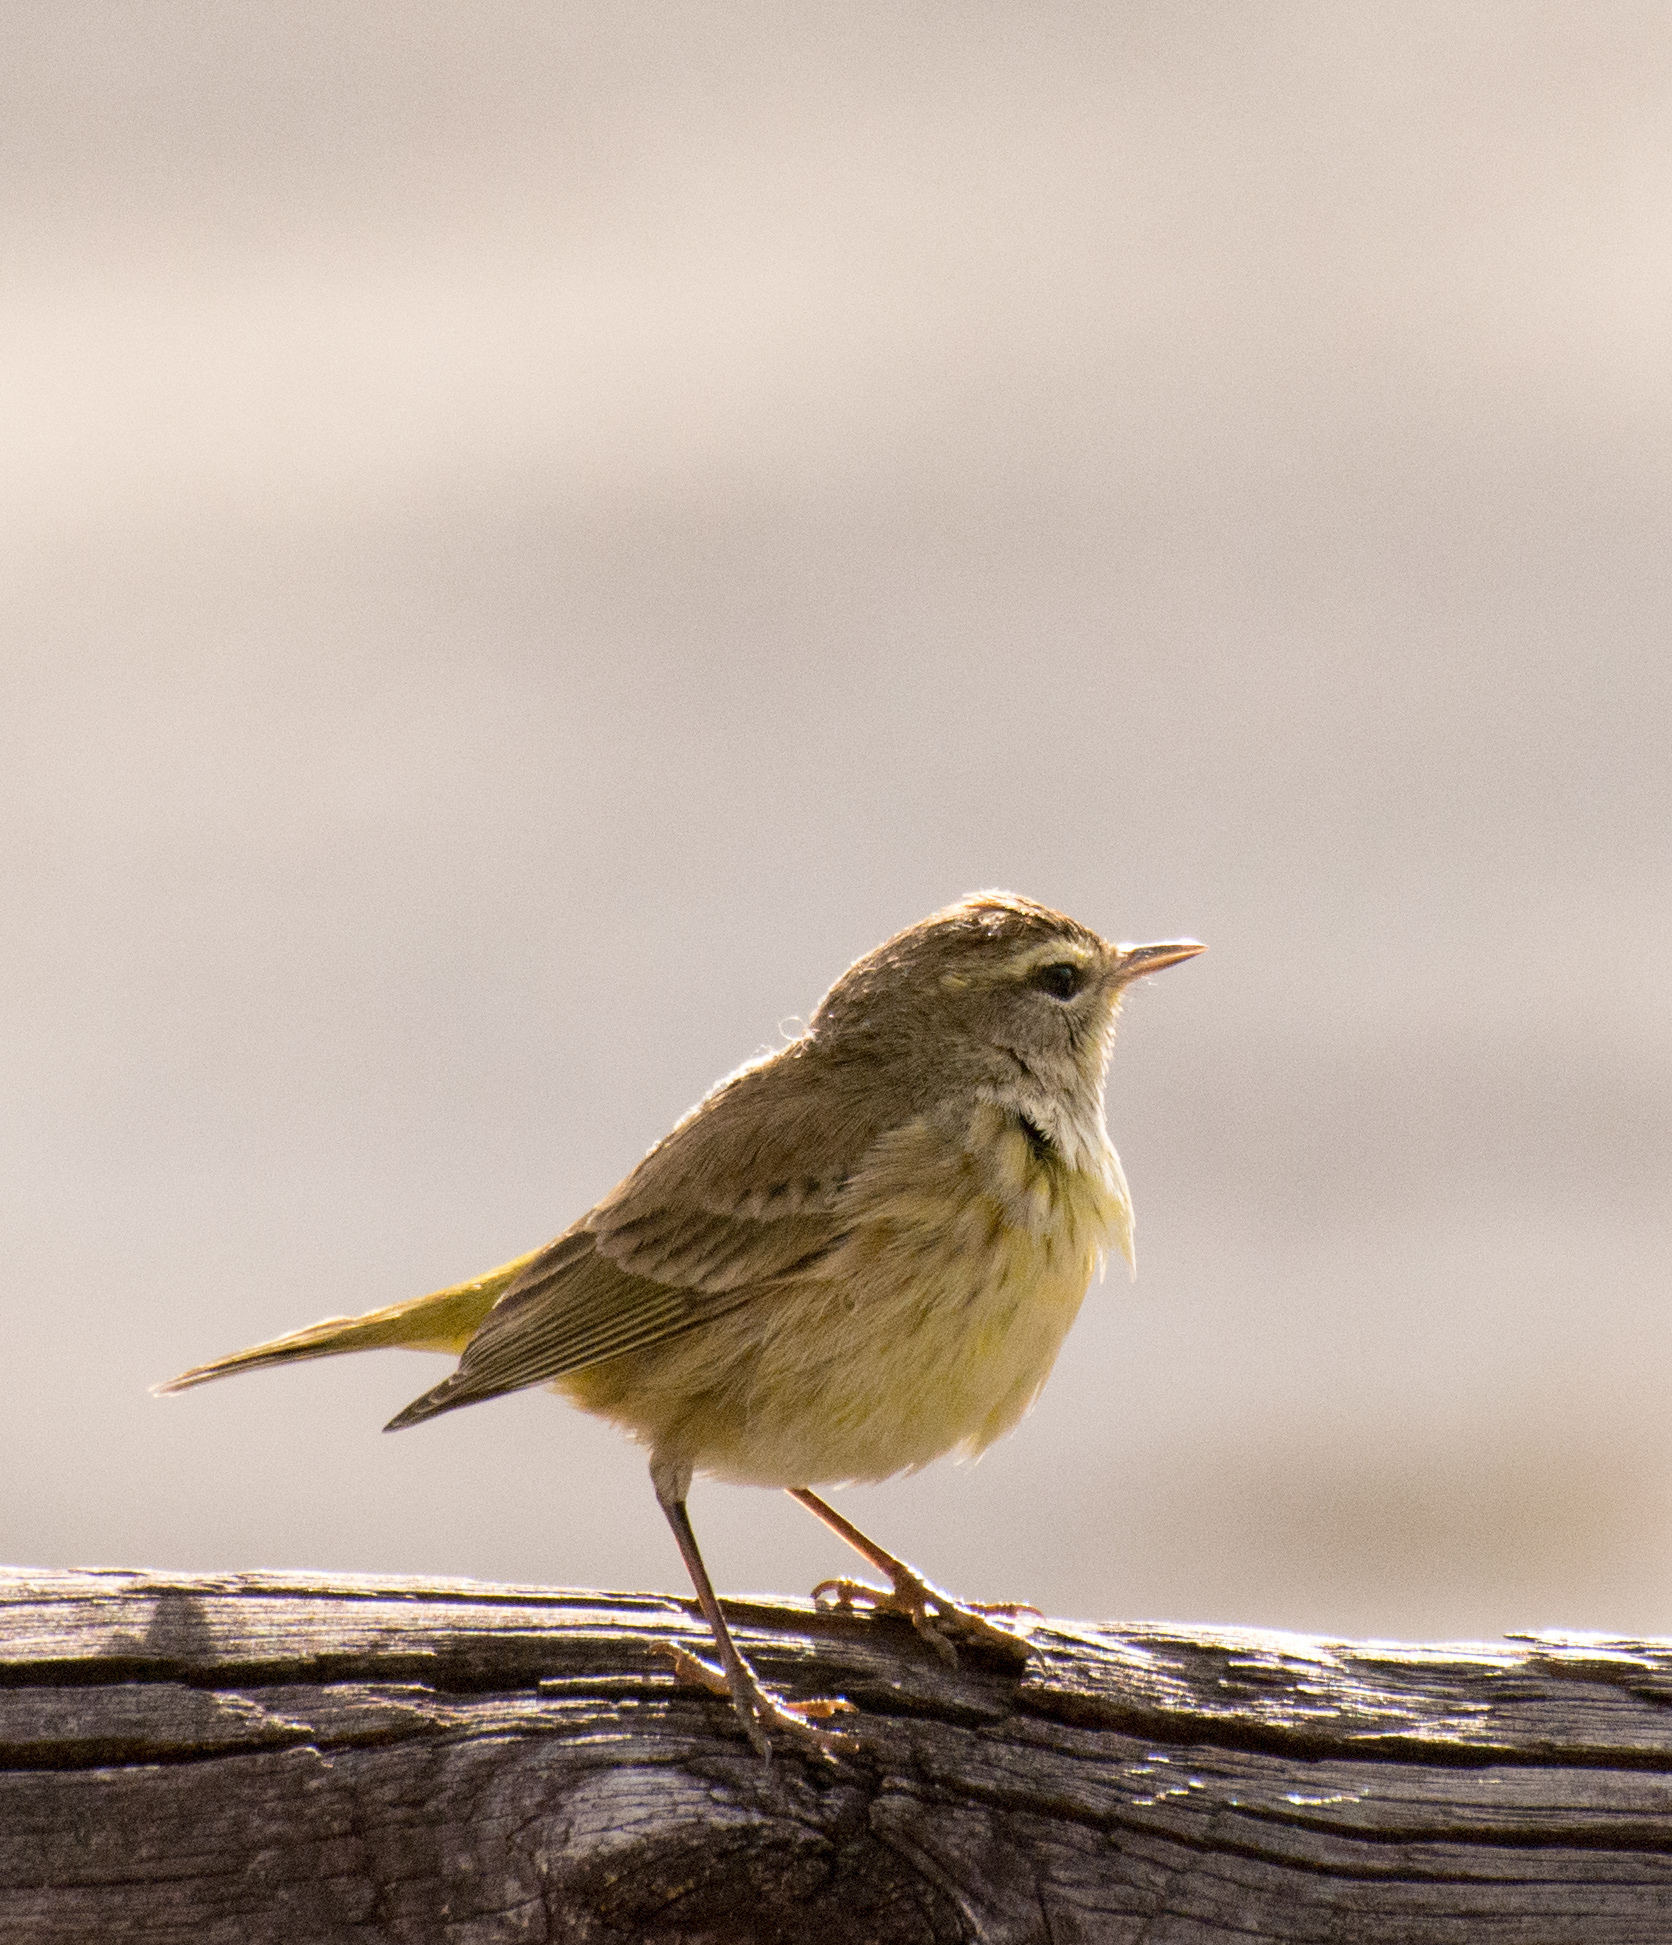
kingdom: Animalia
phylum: Chordata
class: Aves
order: Passeriformes
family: Parulidae
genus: Setophaga
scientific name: Setophaga palmarum
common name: Palm warbler
